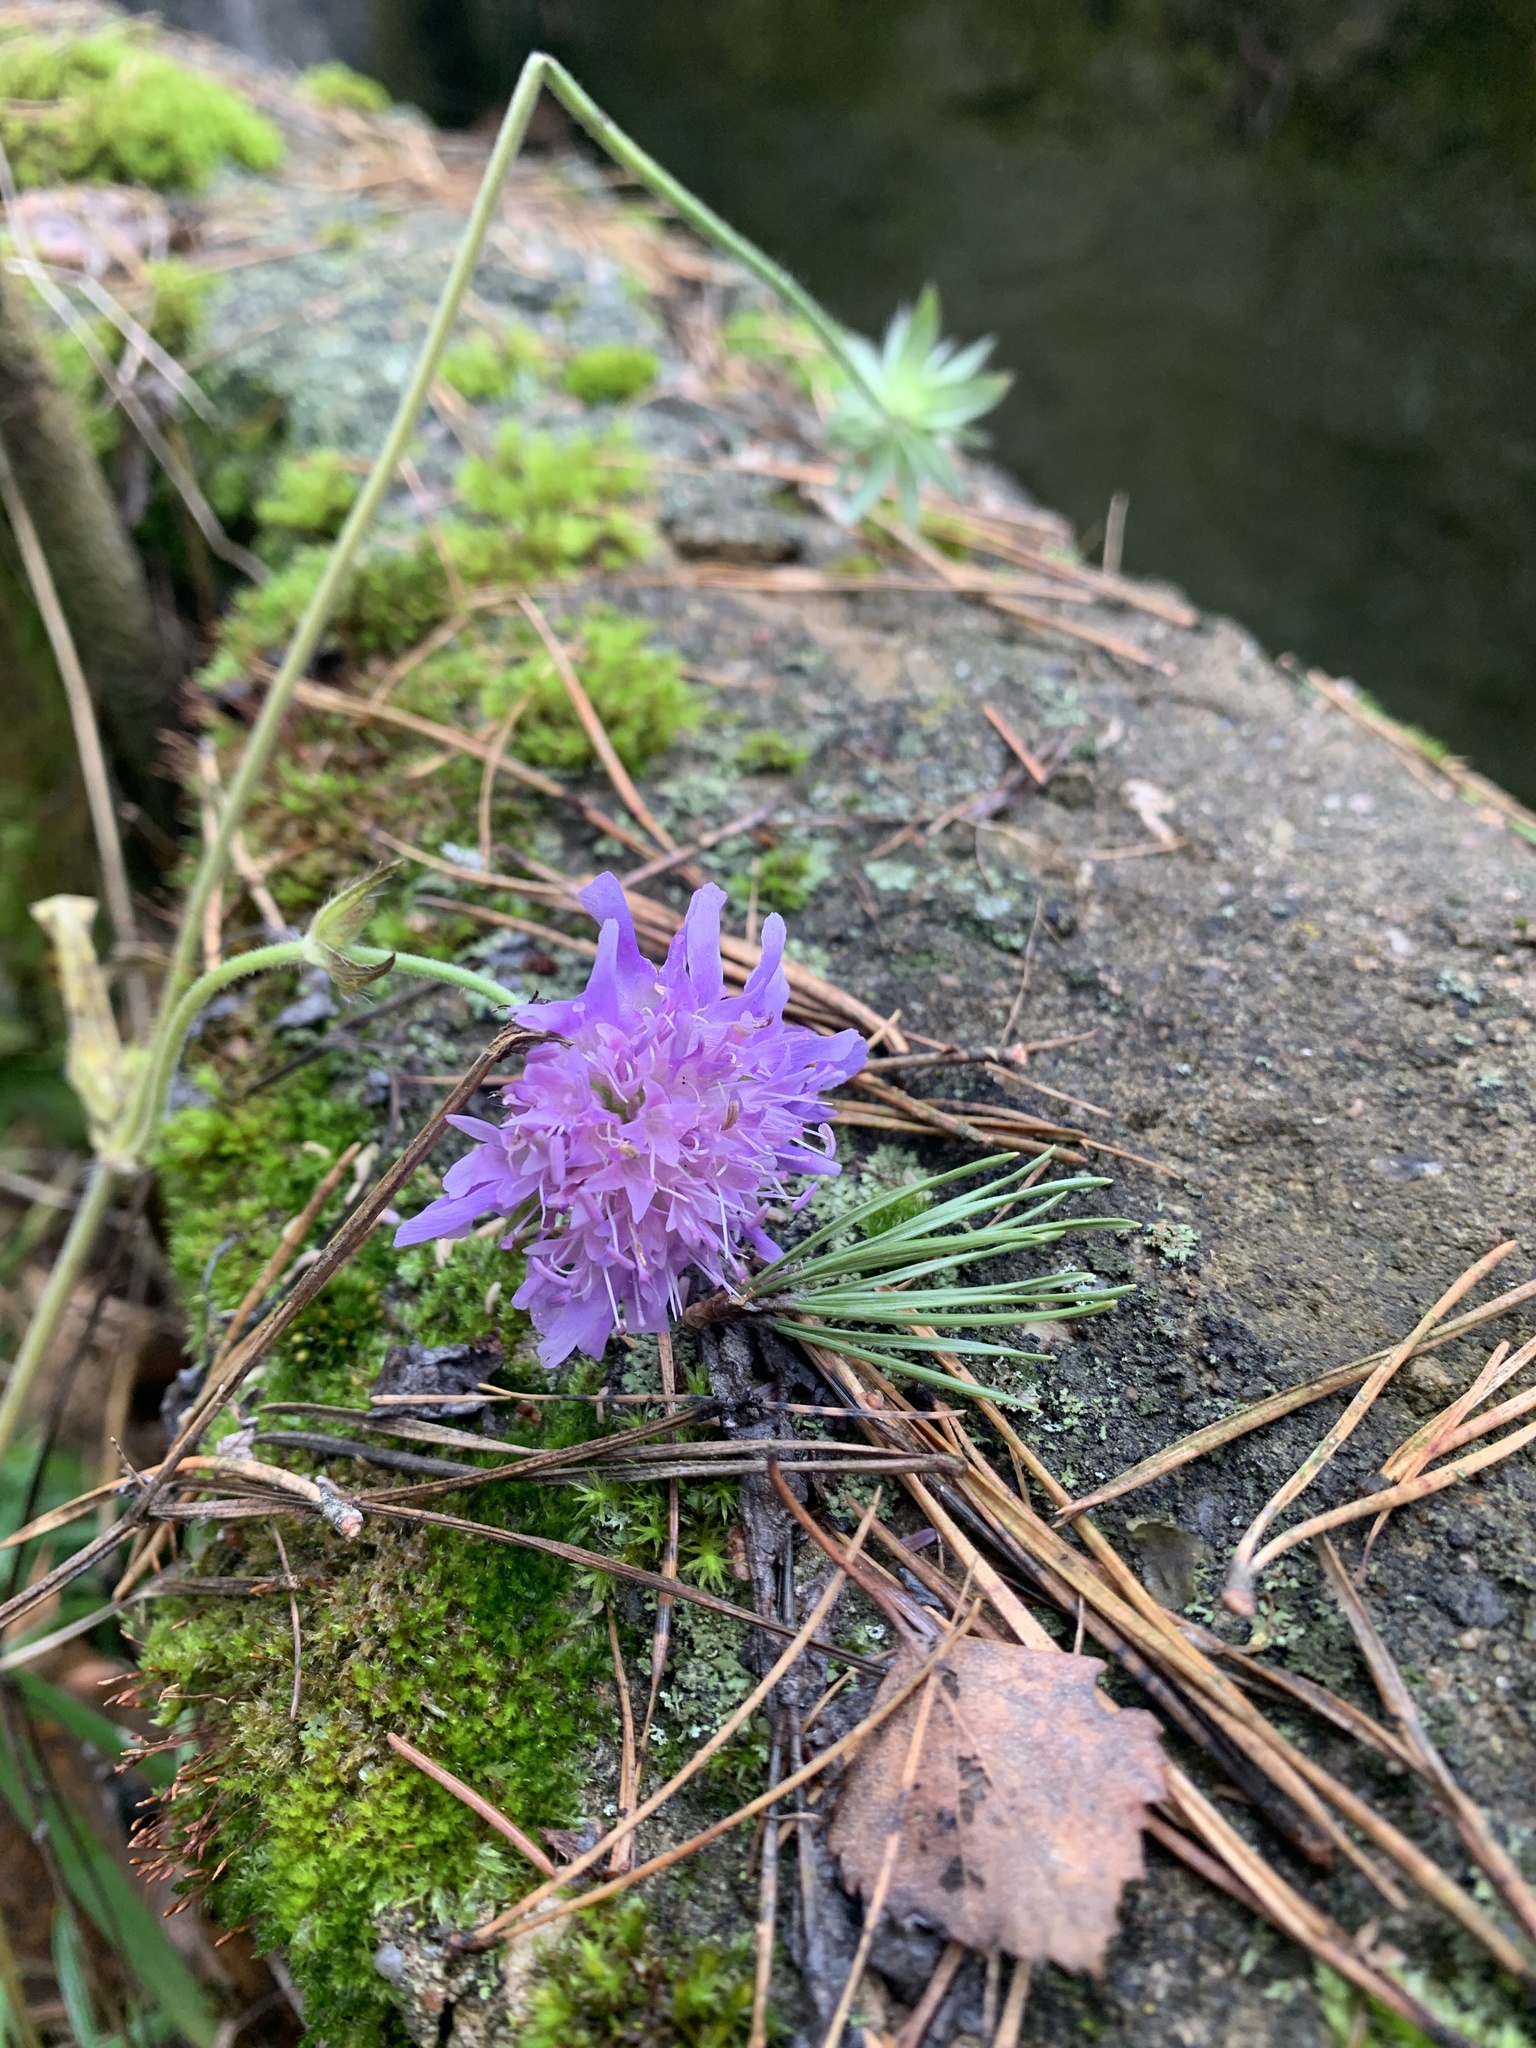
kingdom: Plantae
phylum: Tracheophyta
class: Magnoliopsida
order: Dipsacales
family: Caprifoliaceae
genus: Knautia
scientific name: Knautia arvensis
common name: Field scabiosa
